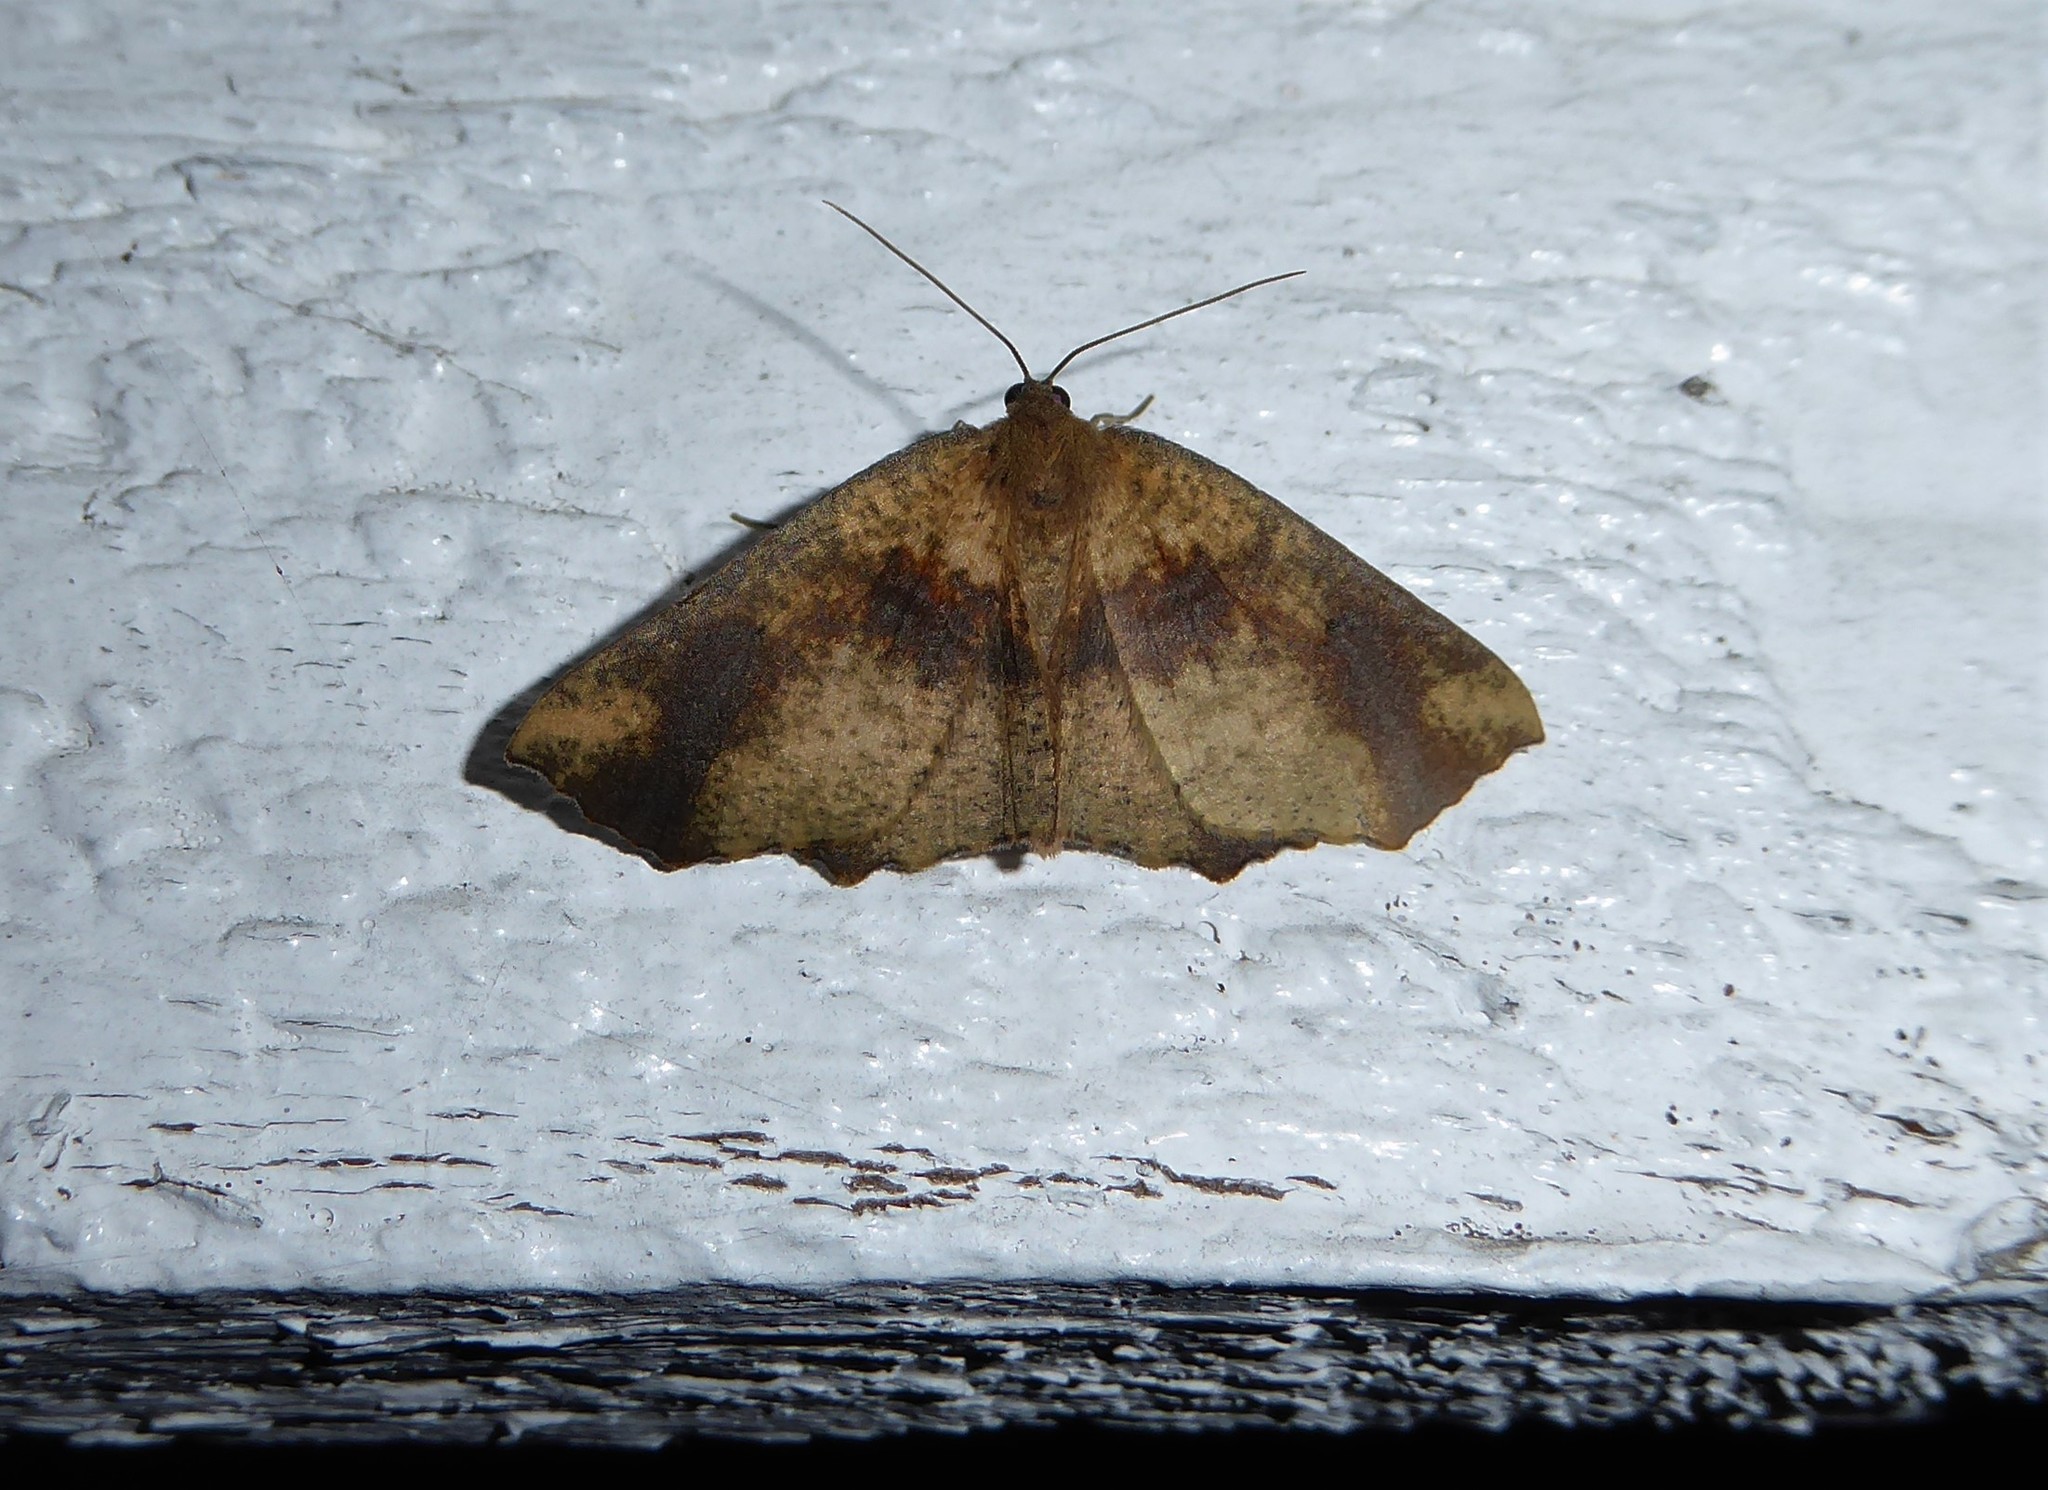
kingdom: Animalia
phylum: Arthropoda
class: Insecta
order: Lepidoptera
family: Geometridae
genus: Xyridacma
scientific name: Xyridacma ustaria
